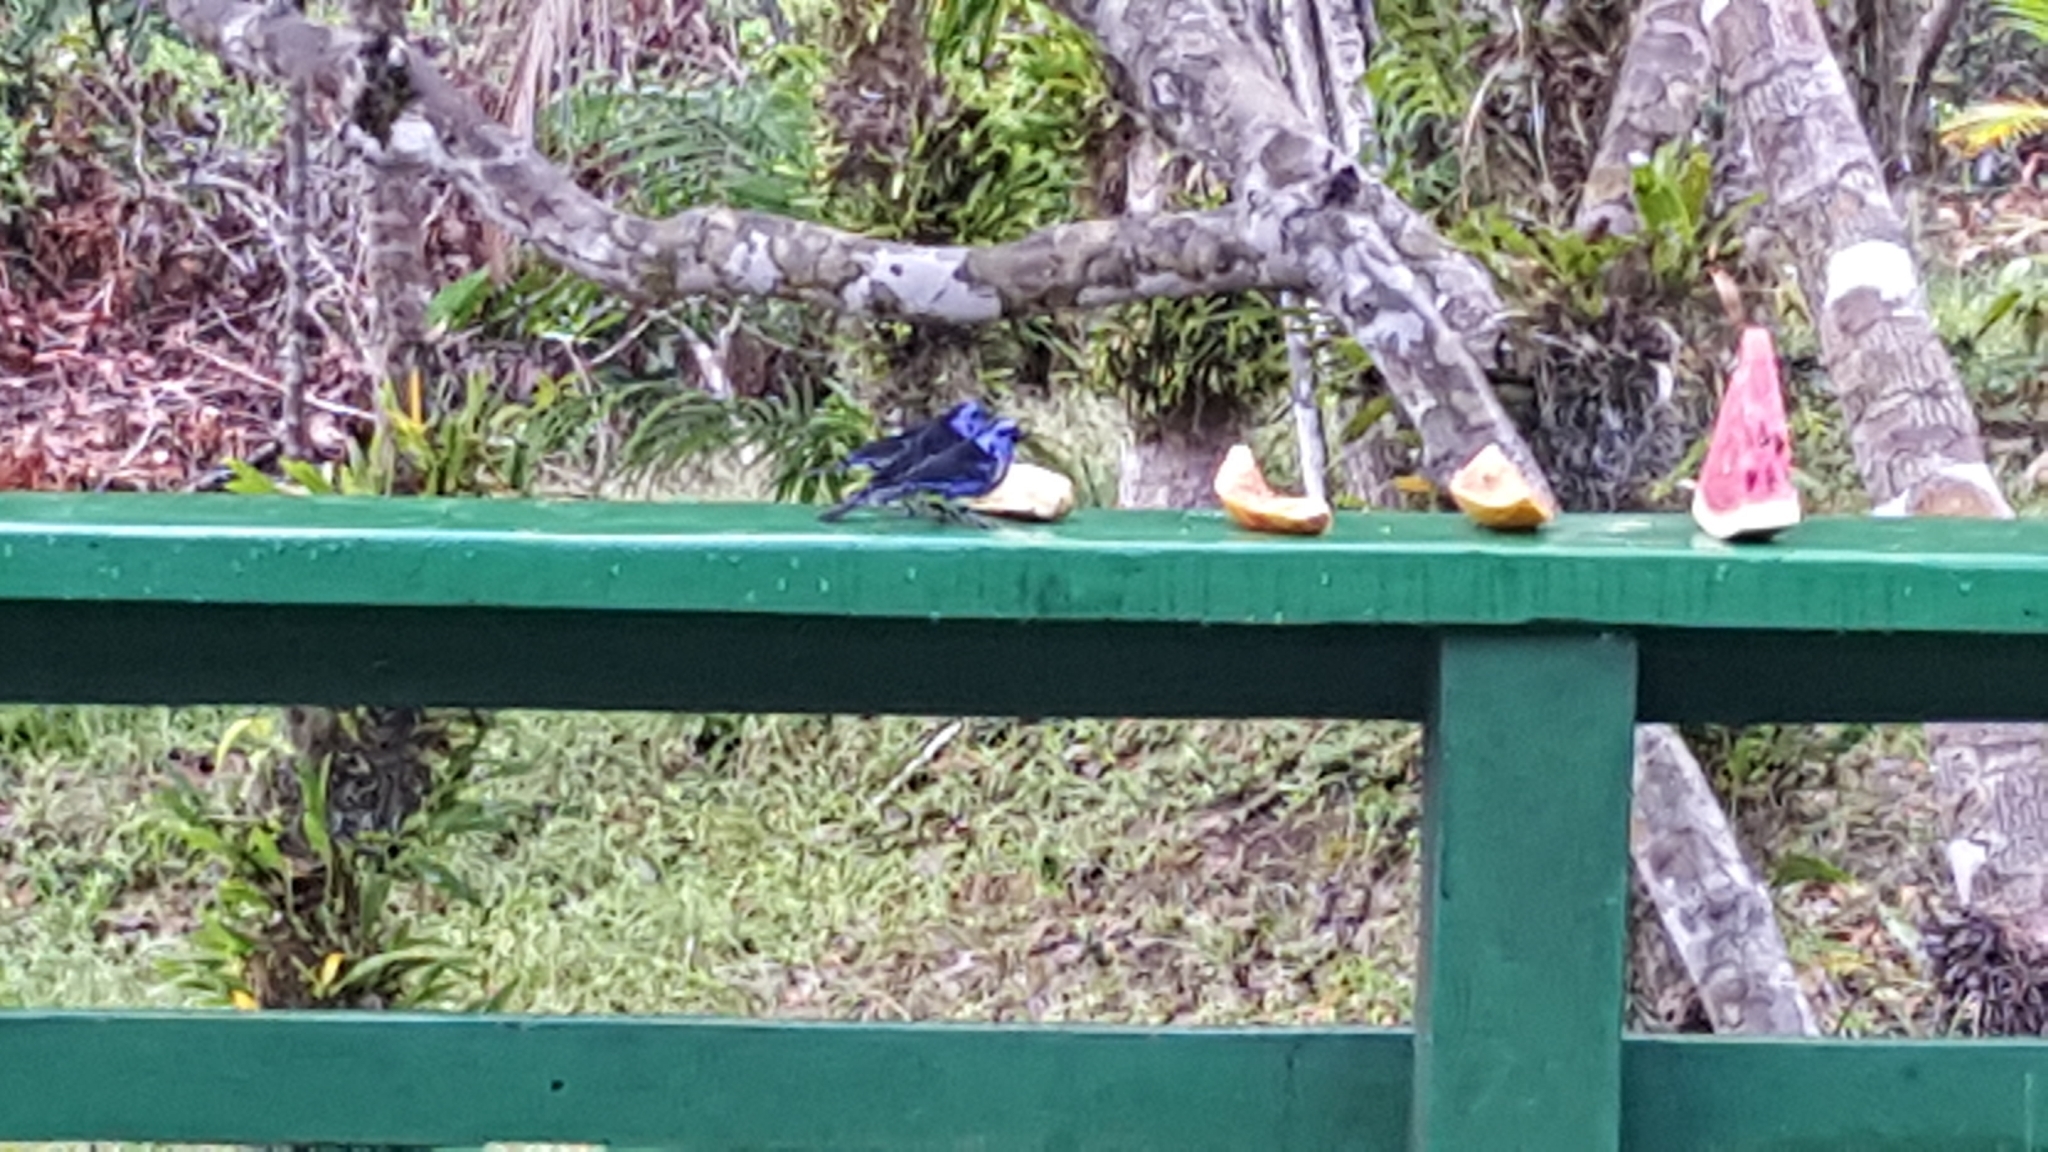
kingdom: Animalia
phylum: Chordata
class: Aves
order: Passeriformes
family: Thraupidae
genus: Tangara
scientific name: Tangara mexicana
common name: Turquoise tanager
